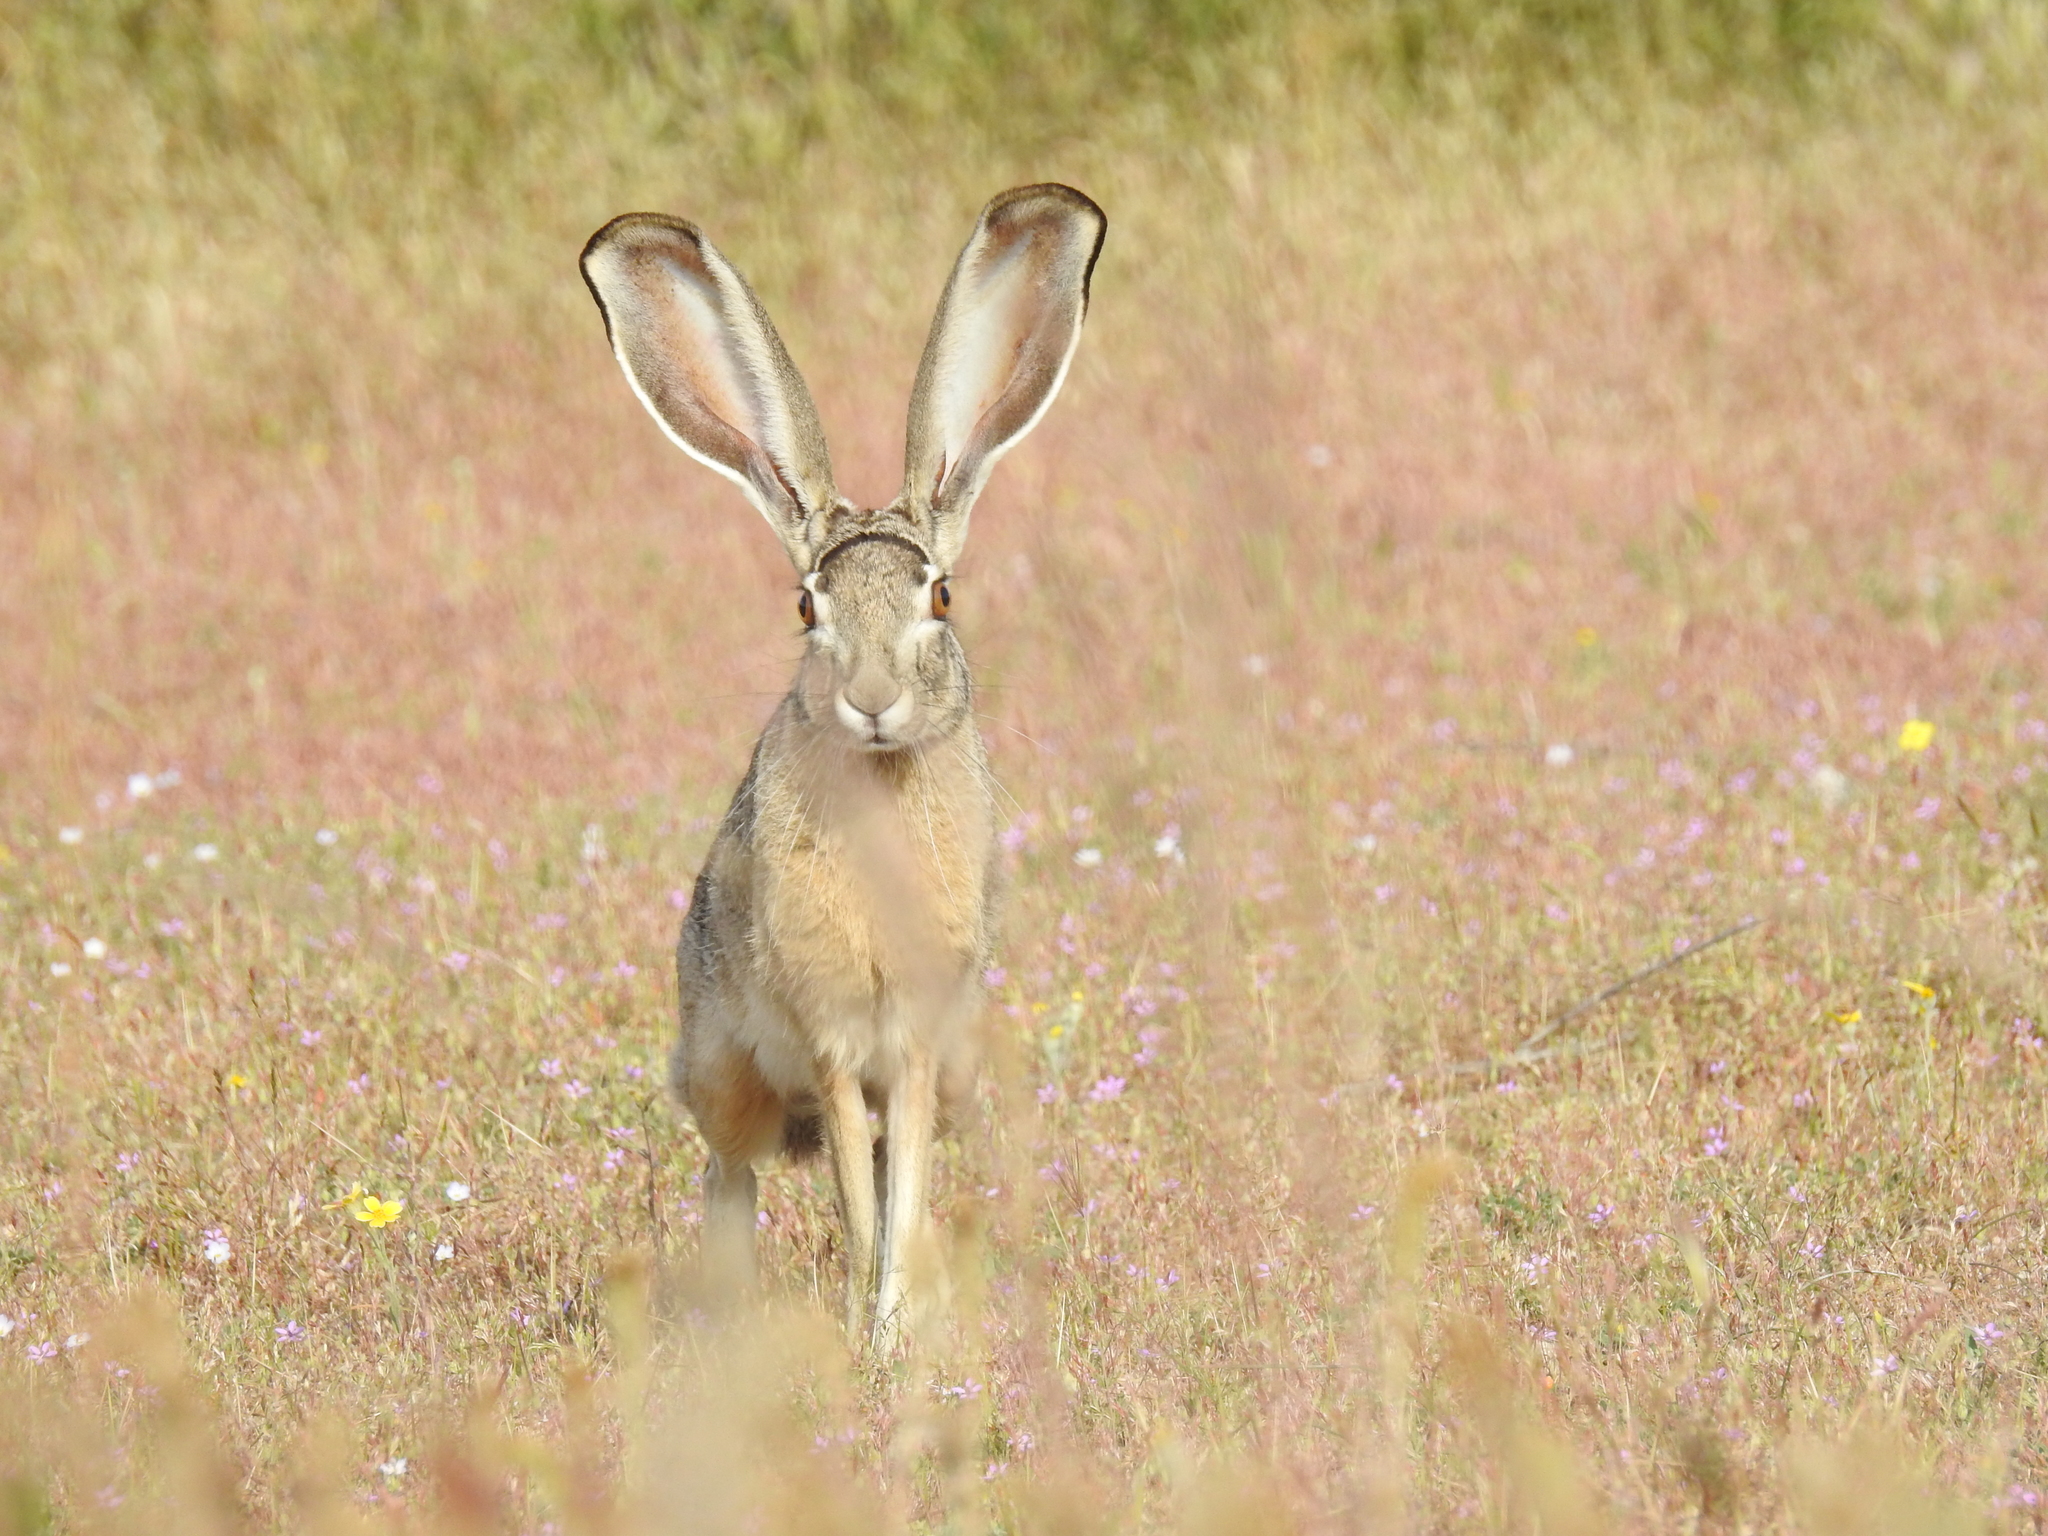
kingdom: Animalia
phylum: Chordata
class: Mammalia
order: Lagomorpha
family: Leporidae
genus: Lepus
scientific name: Lepus californicus
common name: Black-tailed jackrabbit
